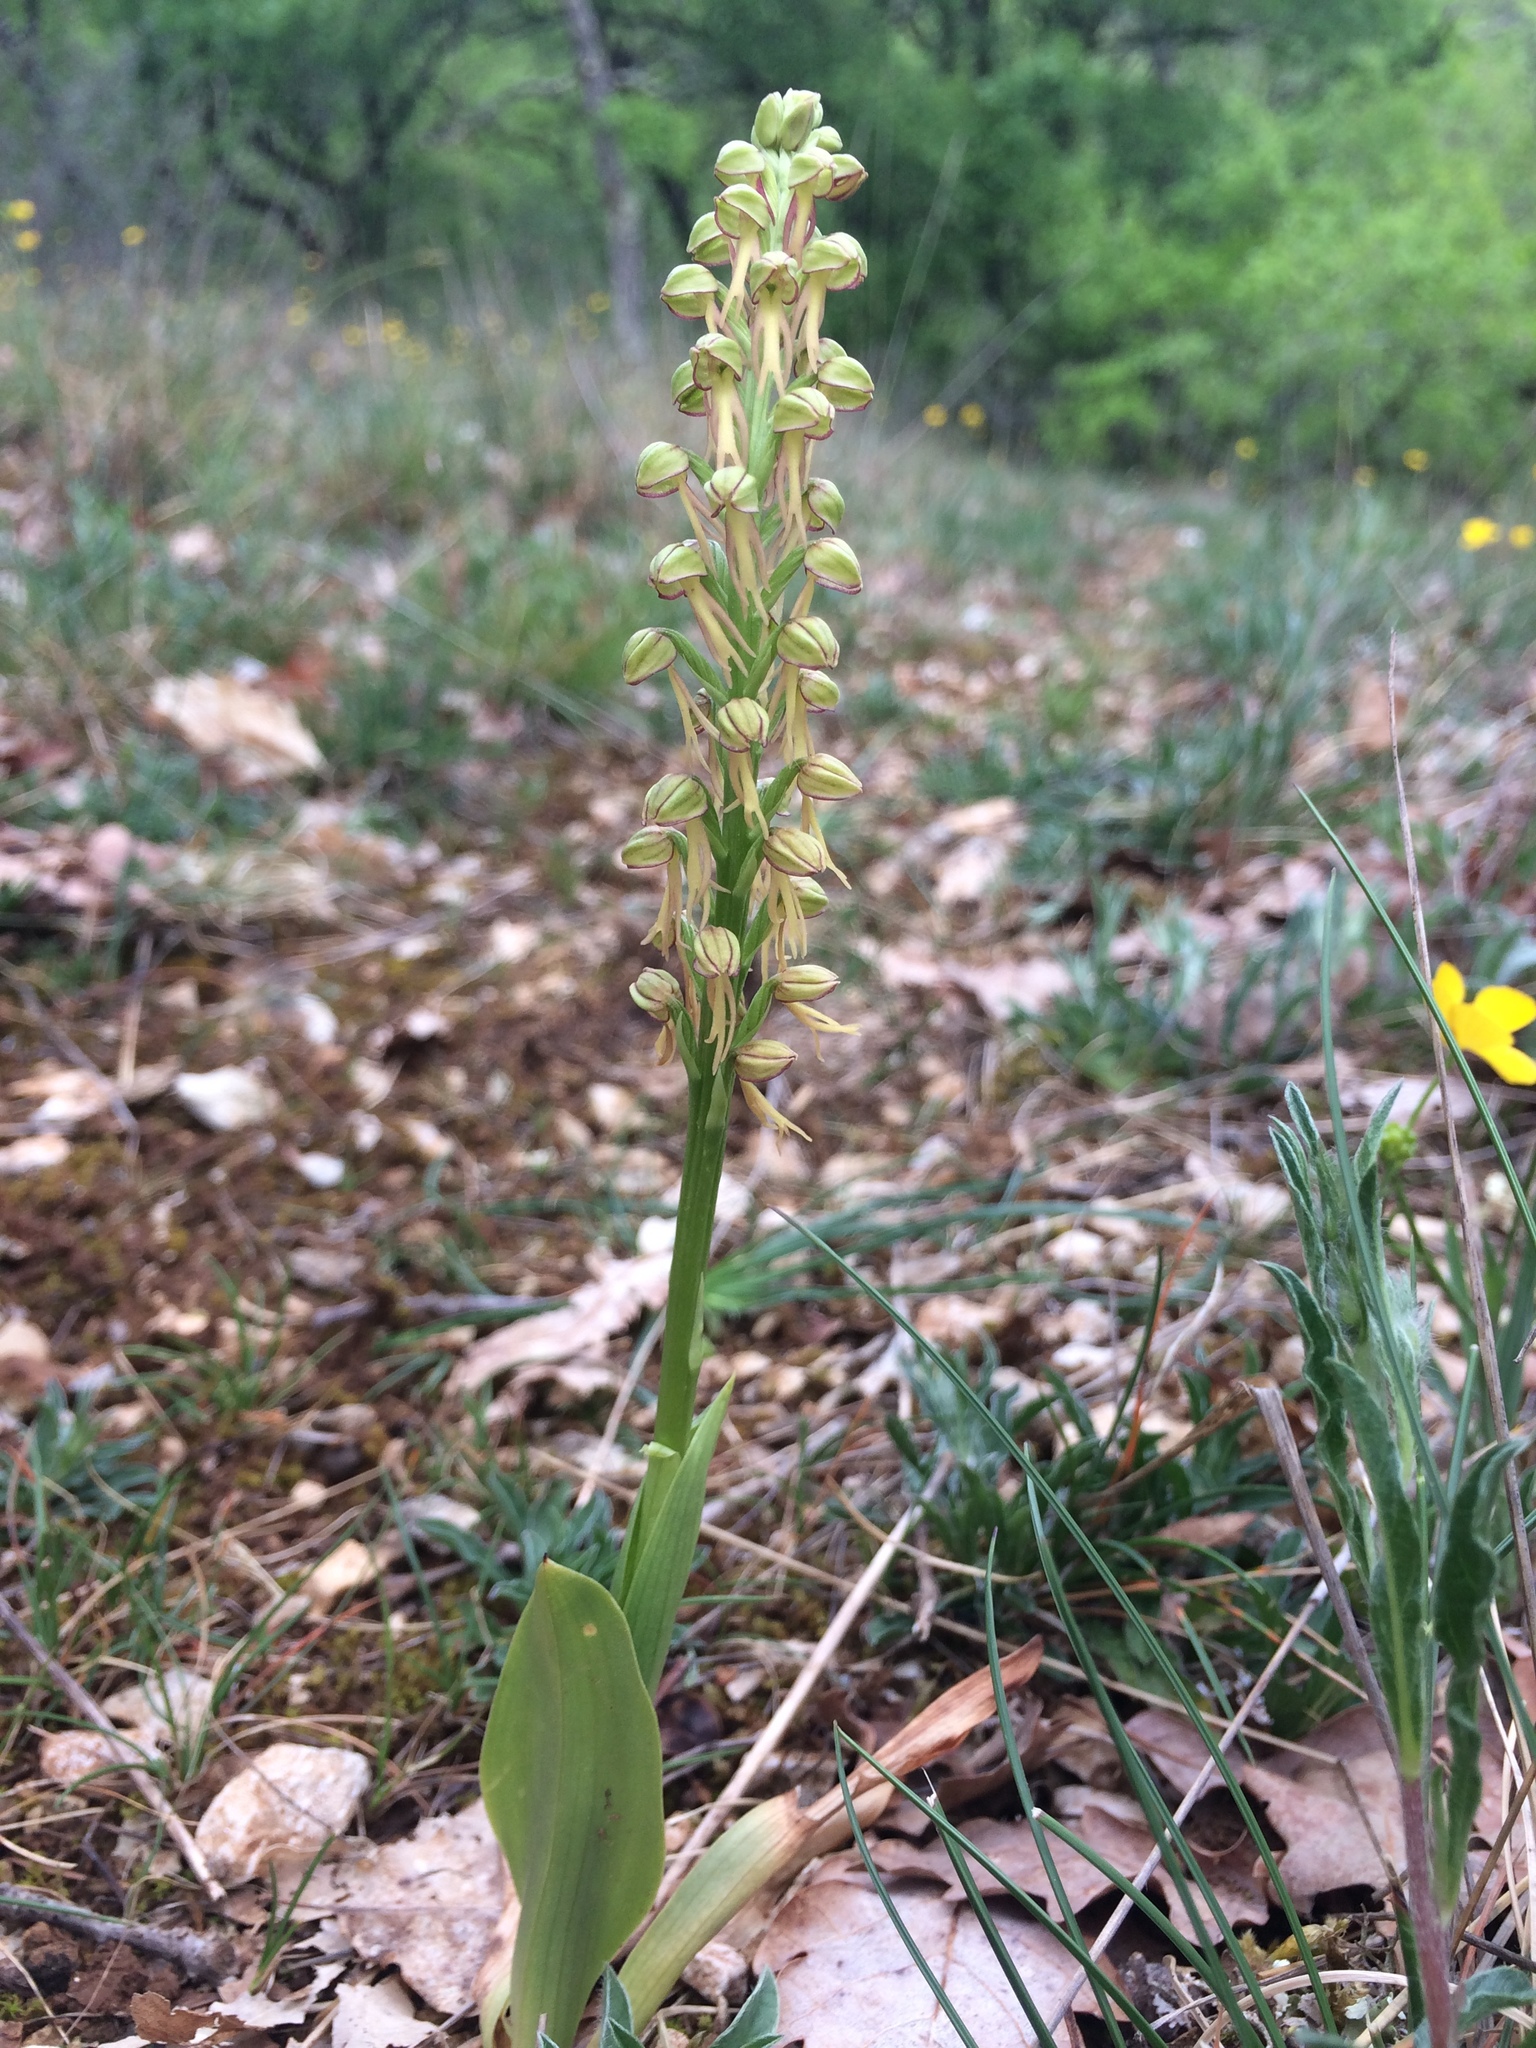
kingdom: Plantae
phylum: Tracheophyta
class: Liliopsida
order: Asparagales
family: Orchidaceae
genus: Orchis
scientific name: Orchis anthropophora
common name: Man orchid
